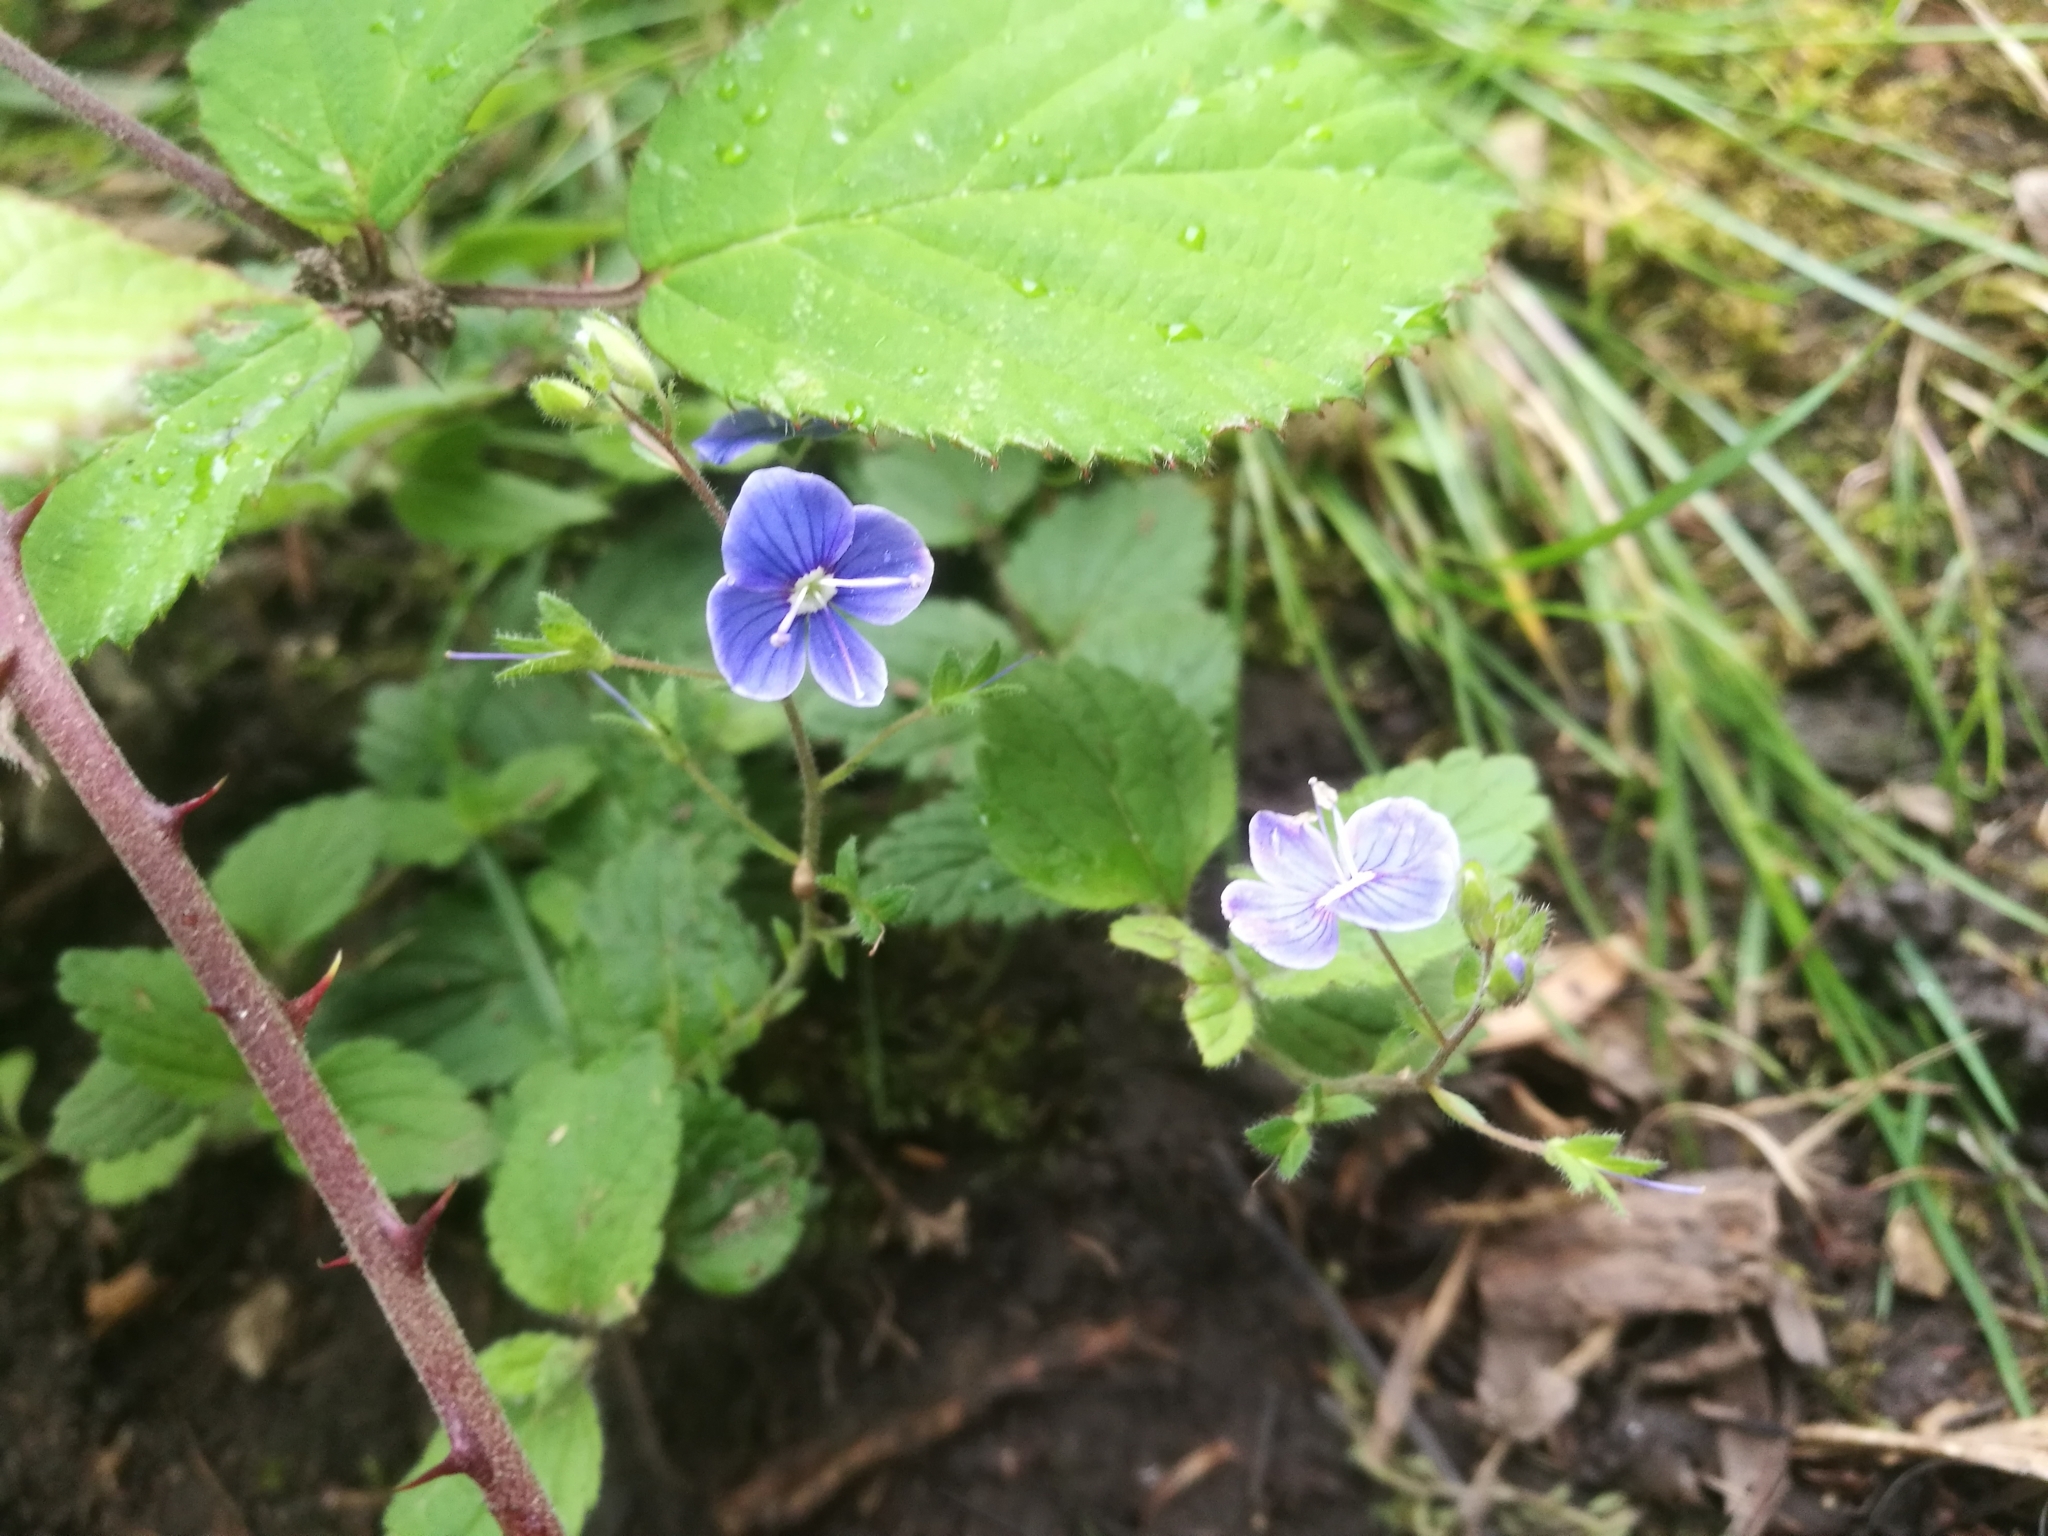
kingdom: Plantae
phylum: Tracheophyta
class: Magnoliopsida
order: Lamiales
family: Plantaginaceae
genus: Veronica
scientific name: Veronica chamaedrys
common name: Germander speedwell
